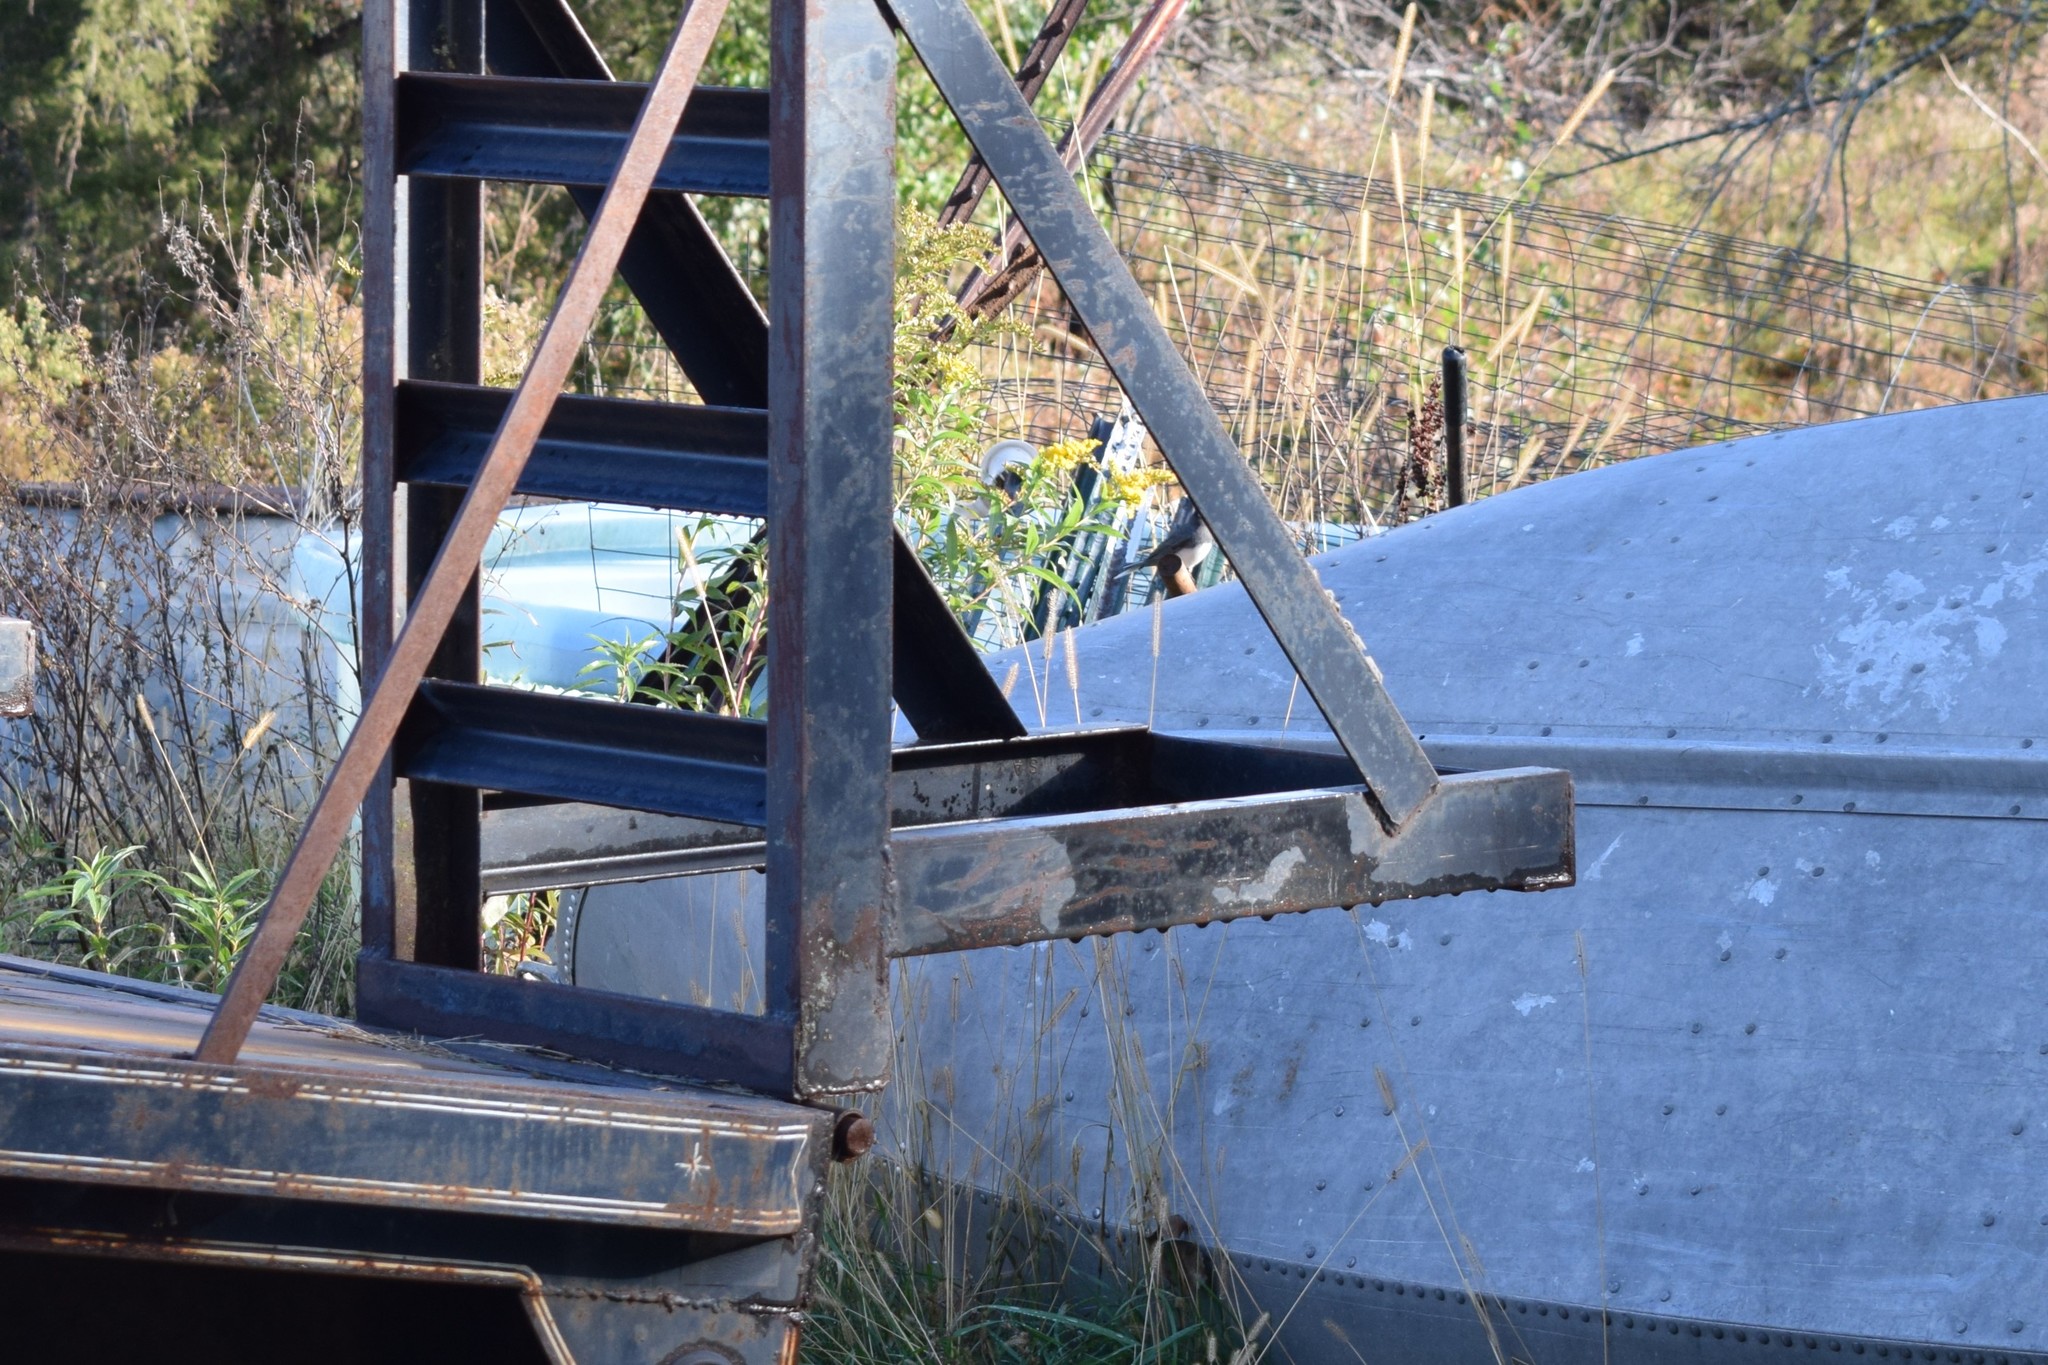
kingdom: Animalia
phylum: Chordata
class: Aves
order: Passeriformes
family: Passerellidae
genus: Junco
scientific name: Junco hyemalis
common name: Dark-eyed junco
